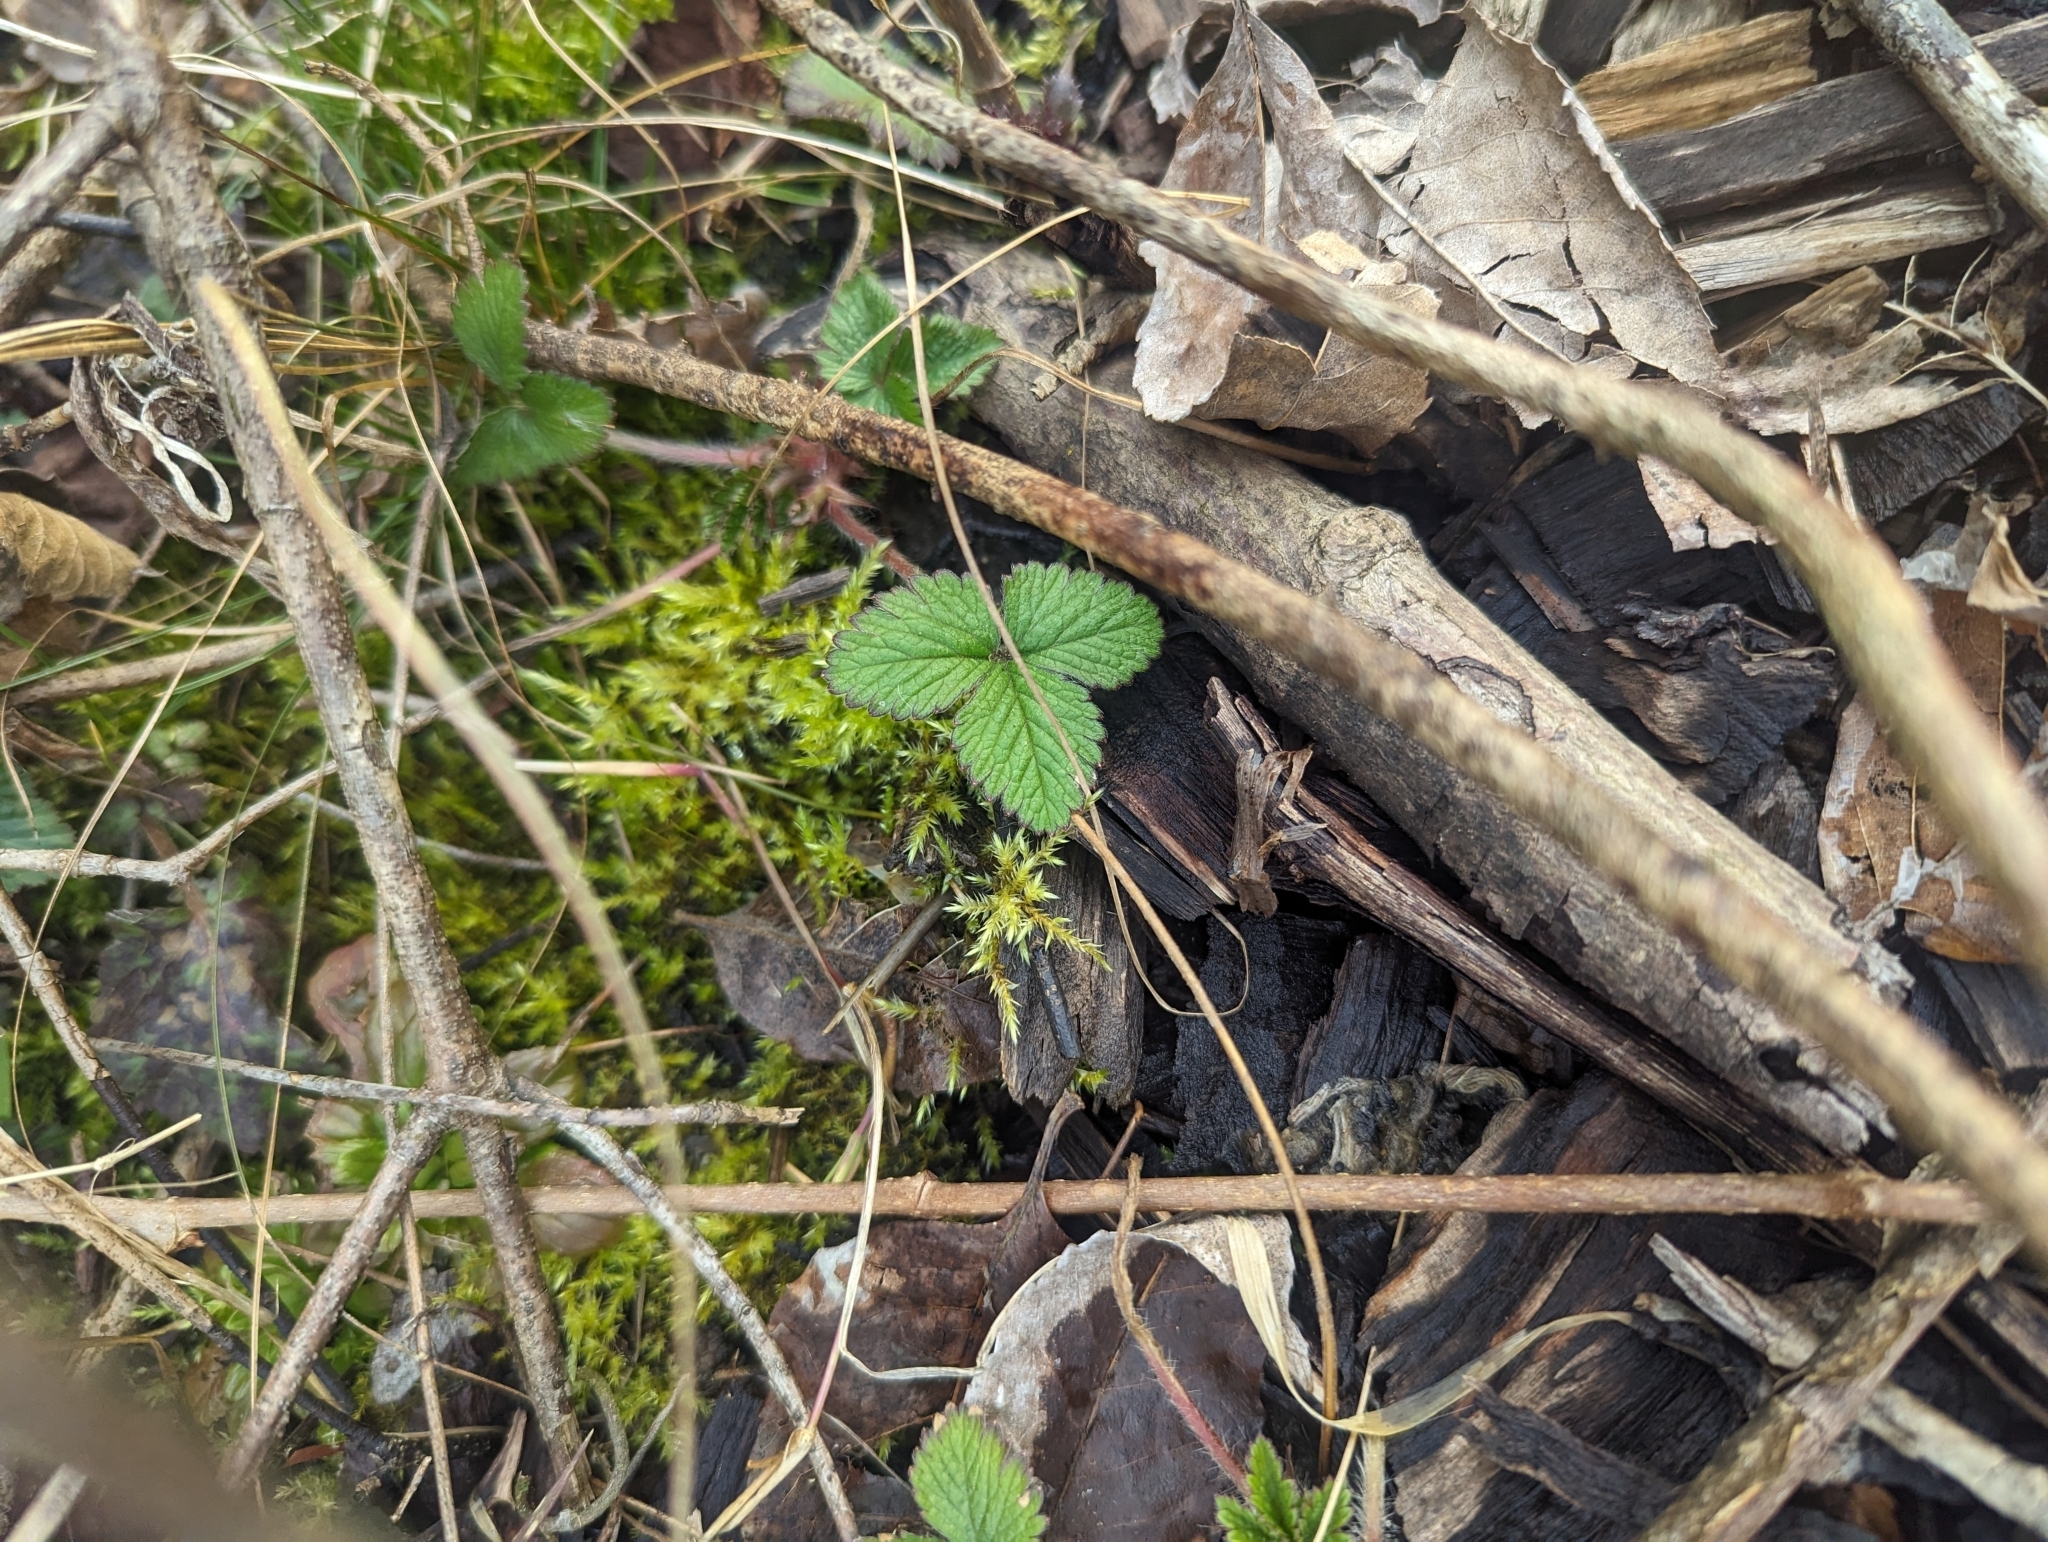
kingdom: Plantae
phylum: Tracheophyta
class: Magnoliopsida
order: Rosales
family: Rosaceae
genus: Potentilla
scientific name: Potentilla indica
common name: Yellow-flowered strawberry
